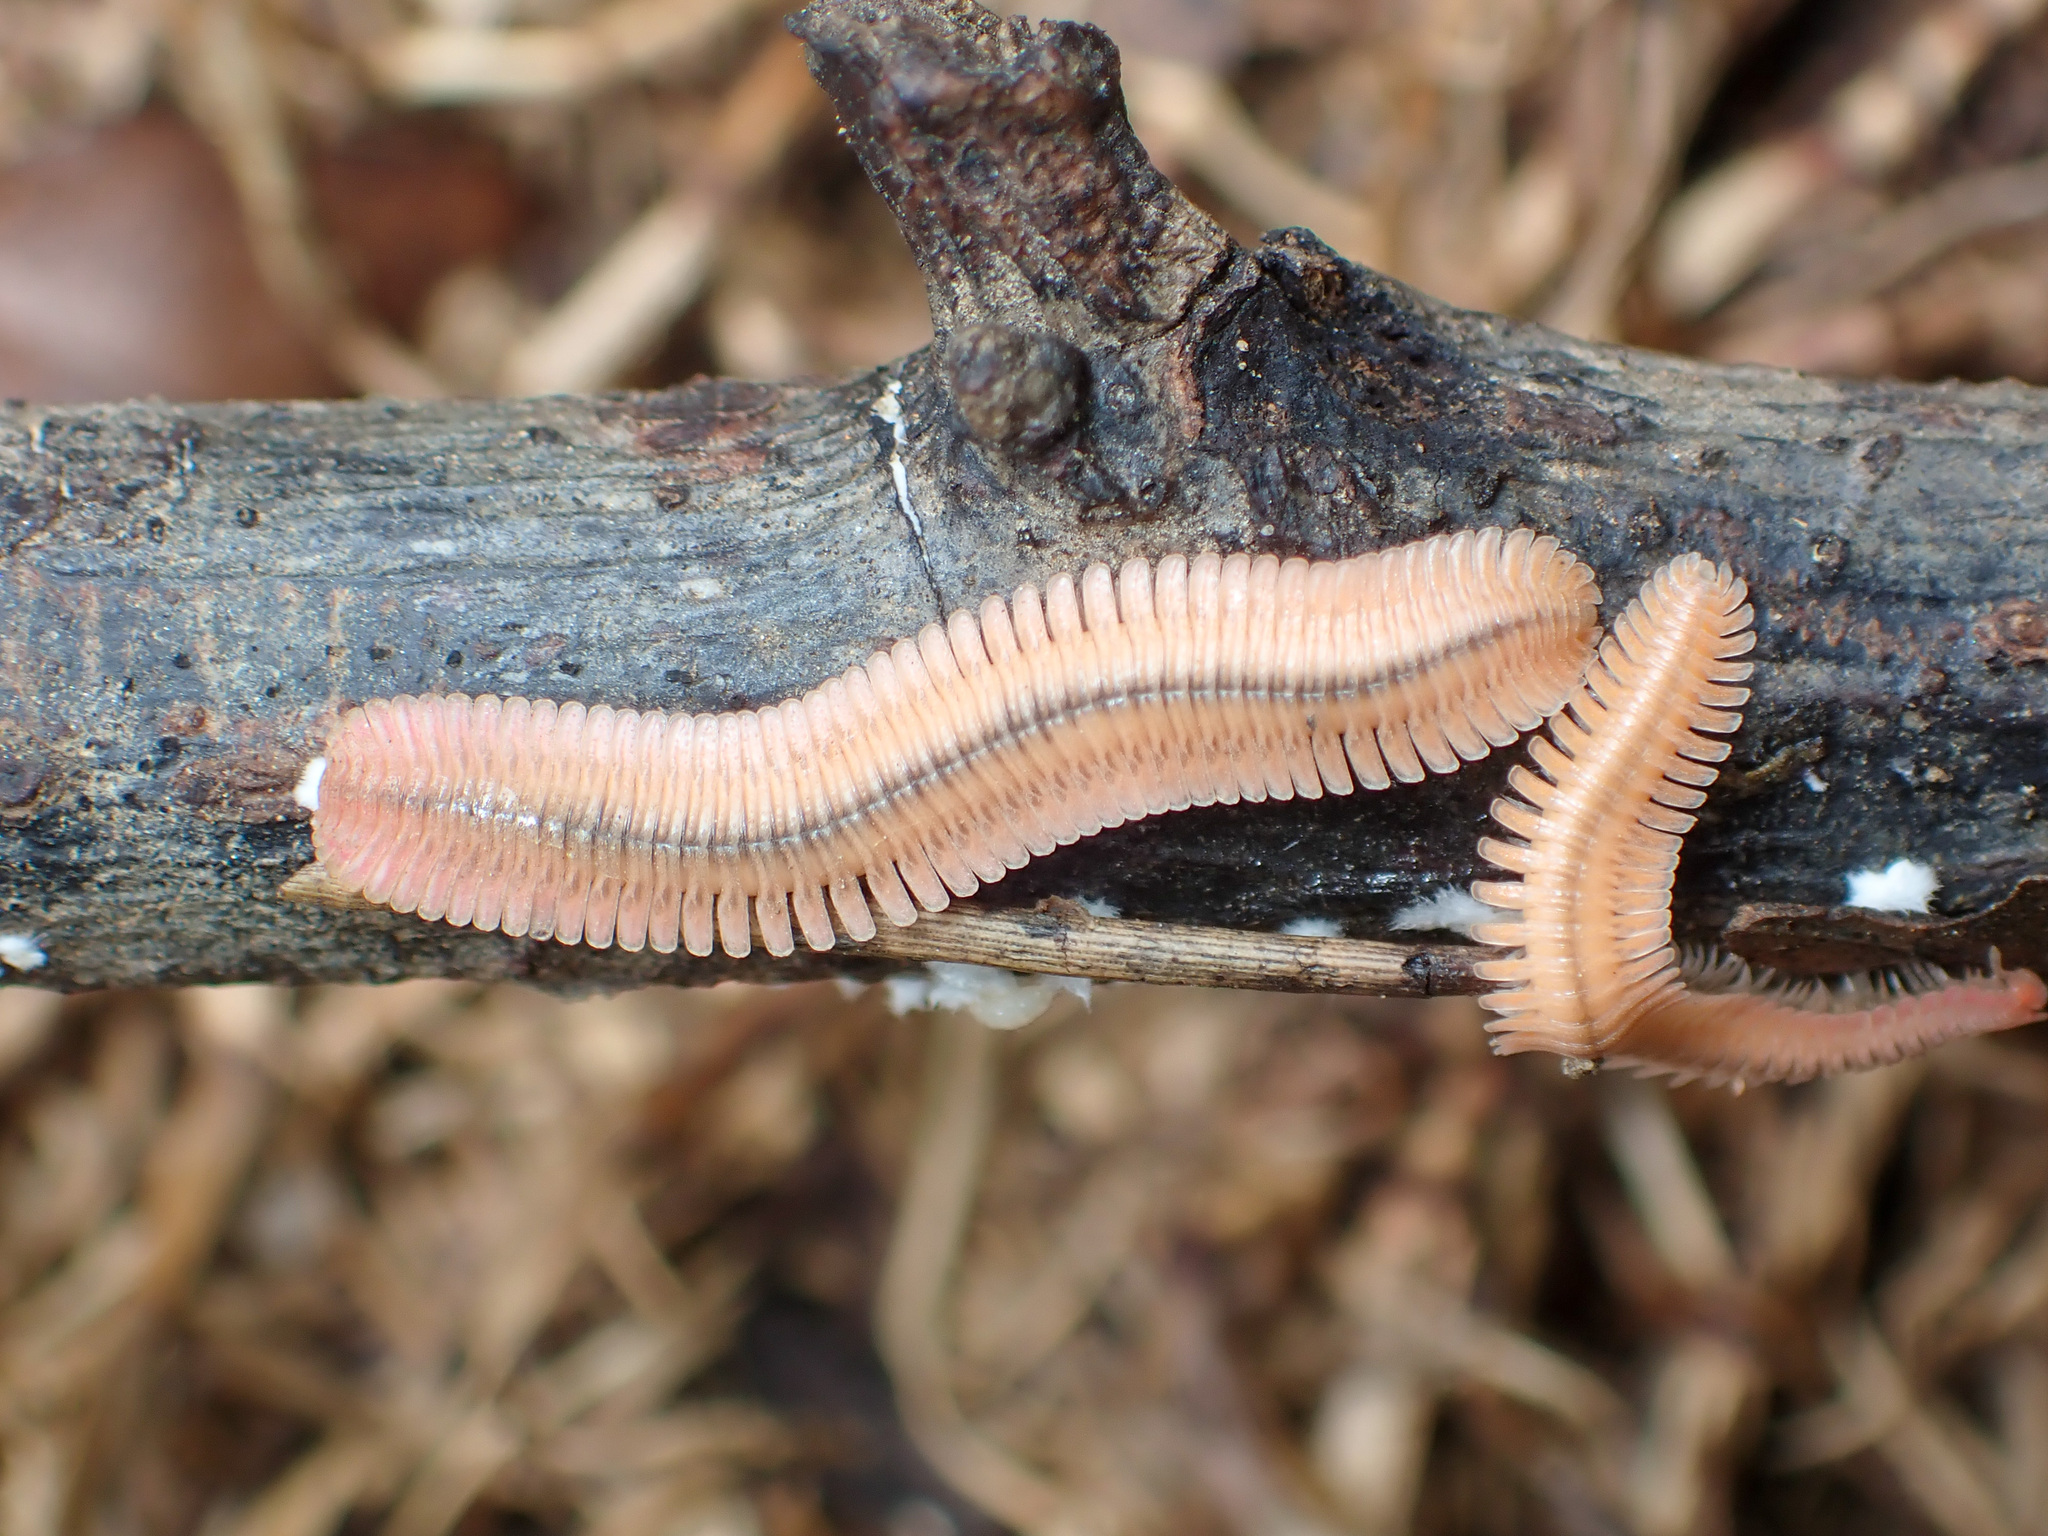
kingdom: Animalia
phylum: Arthropoda
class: Diplopoda
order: Platydesmida
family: Andrognathidae
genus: Brachycybe
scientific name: Brachycybe lecontii
